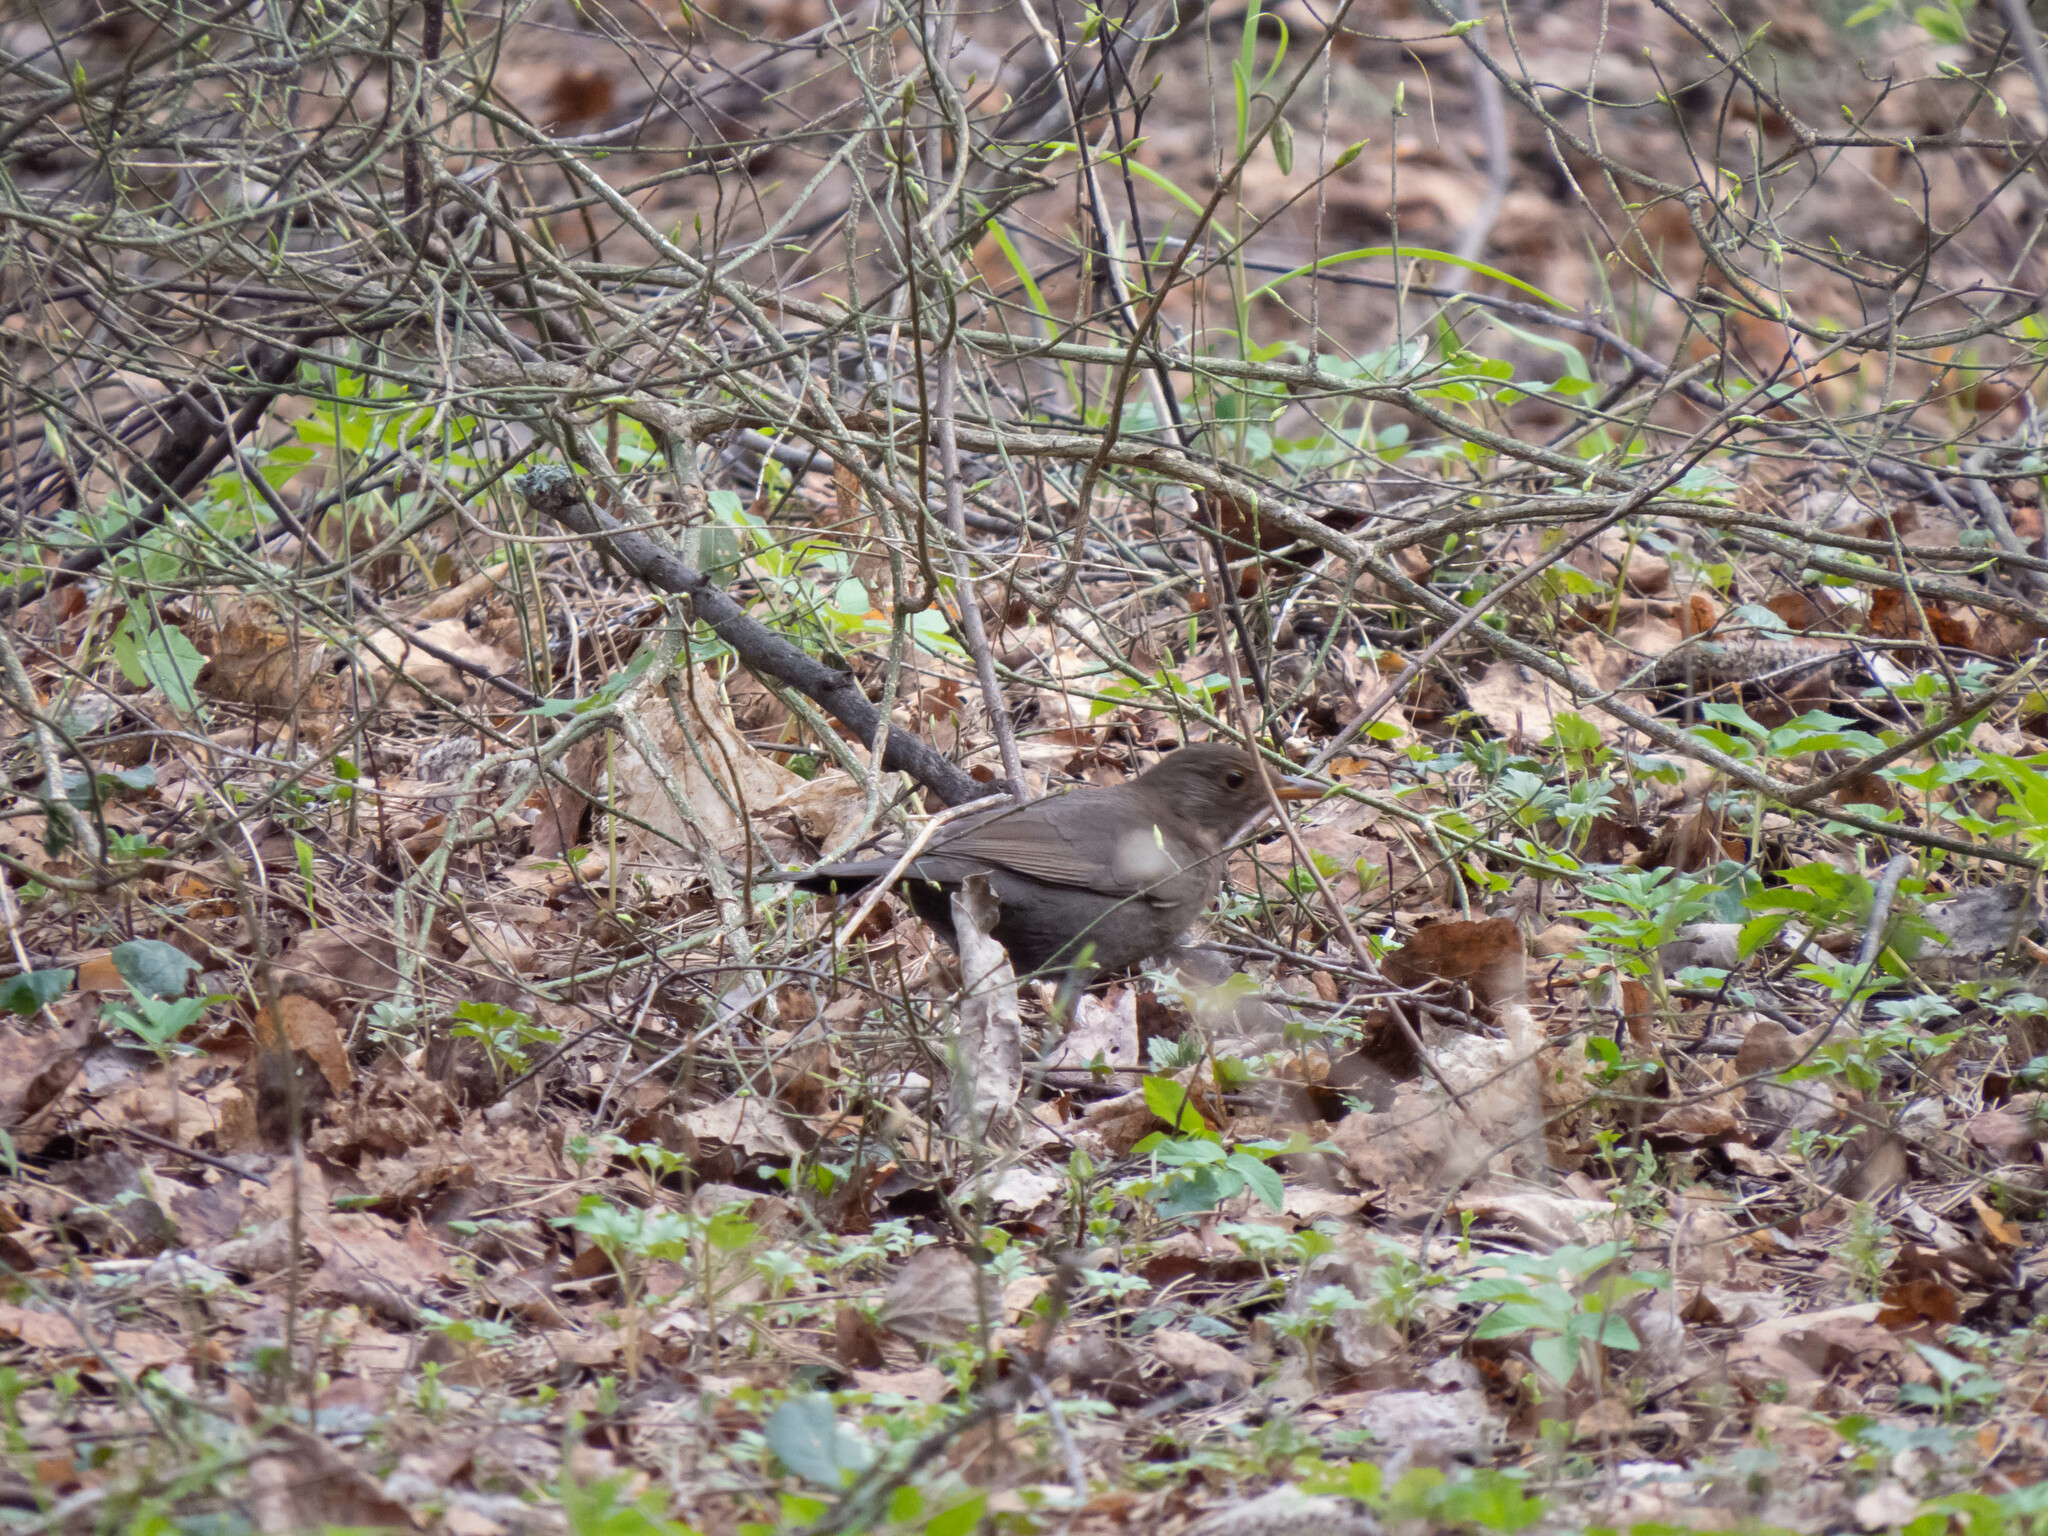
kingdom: Animalia
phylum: Chordata
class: Aves
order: Passeriformes
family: Turdidae
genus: Turdus
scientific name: Turdus merula
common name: Common blackbird
